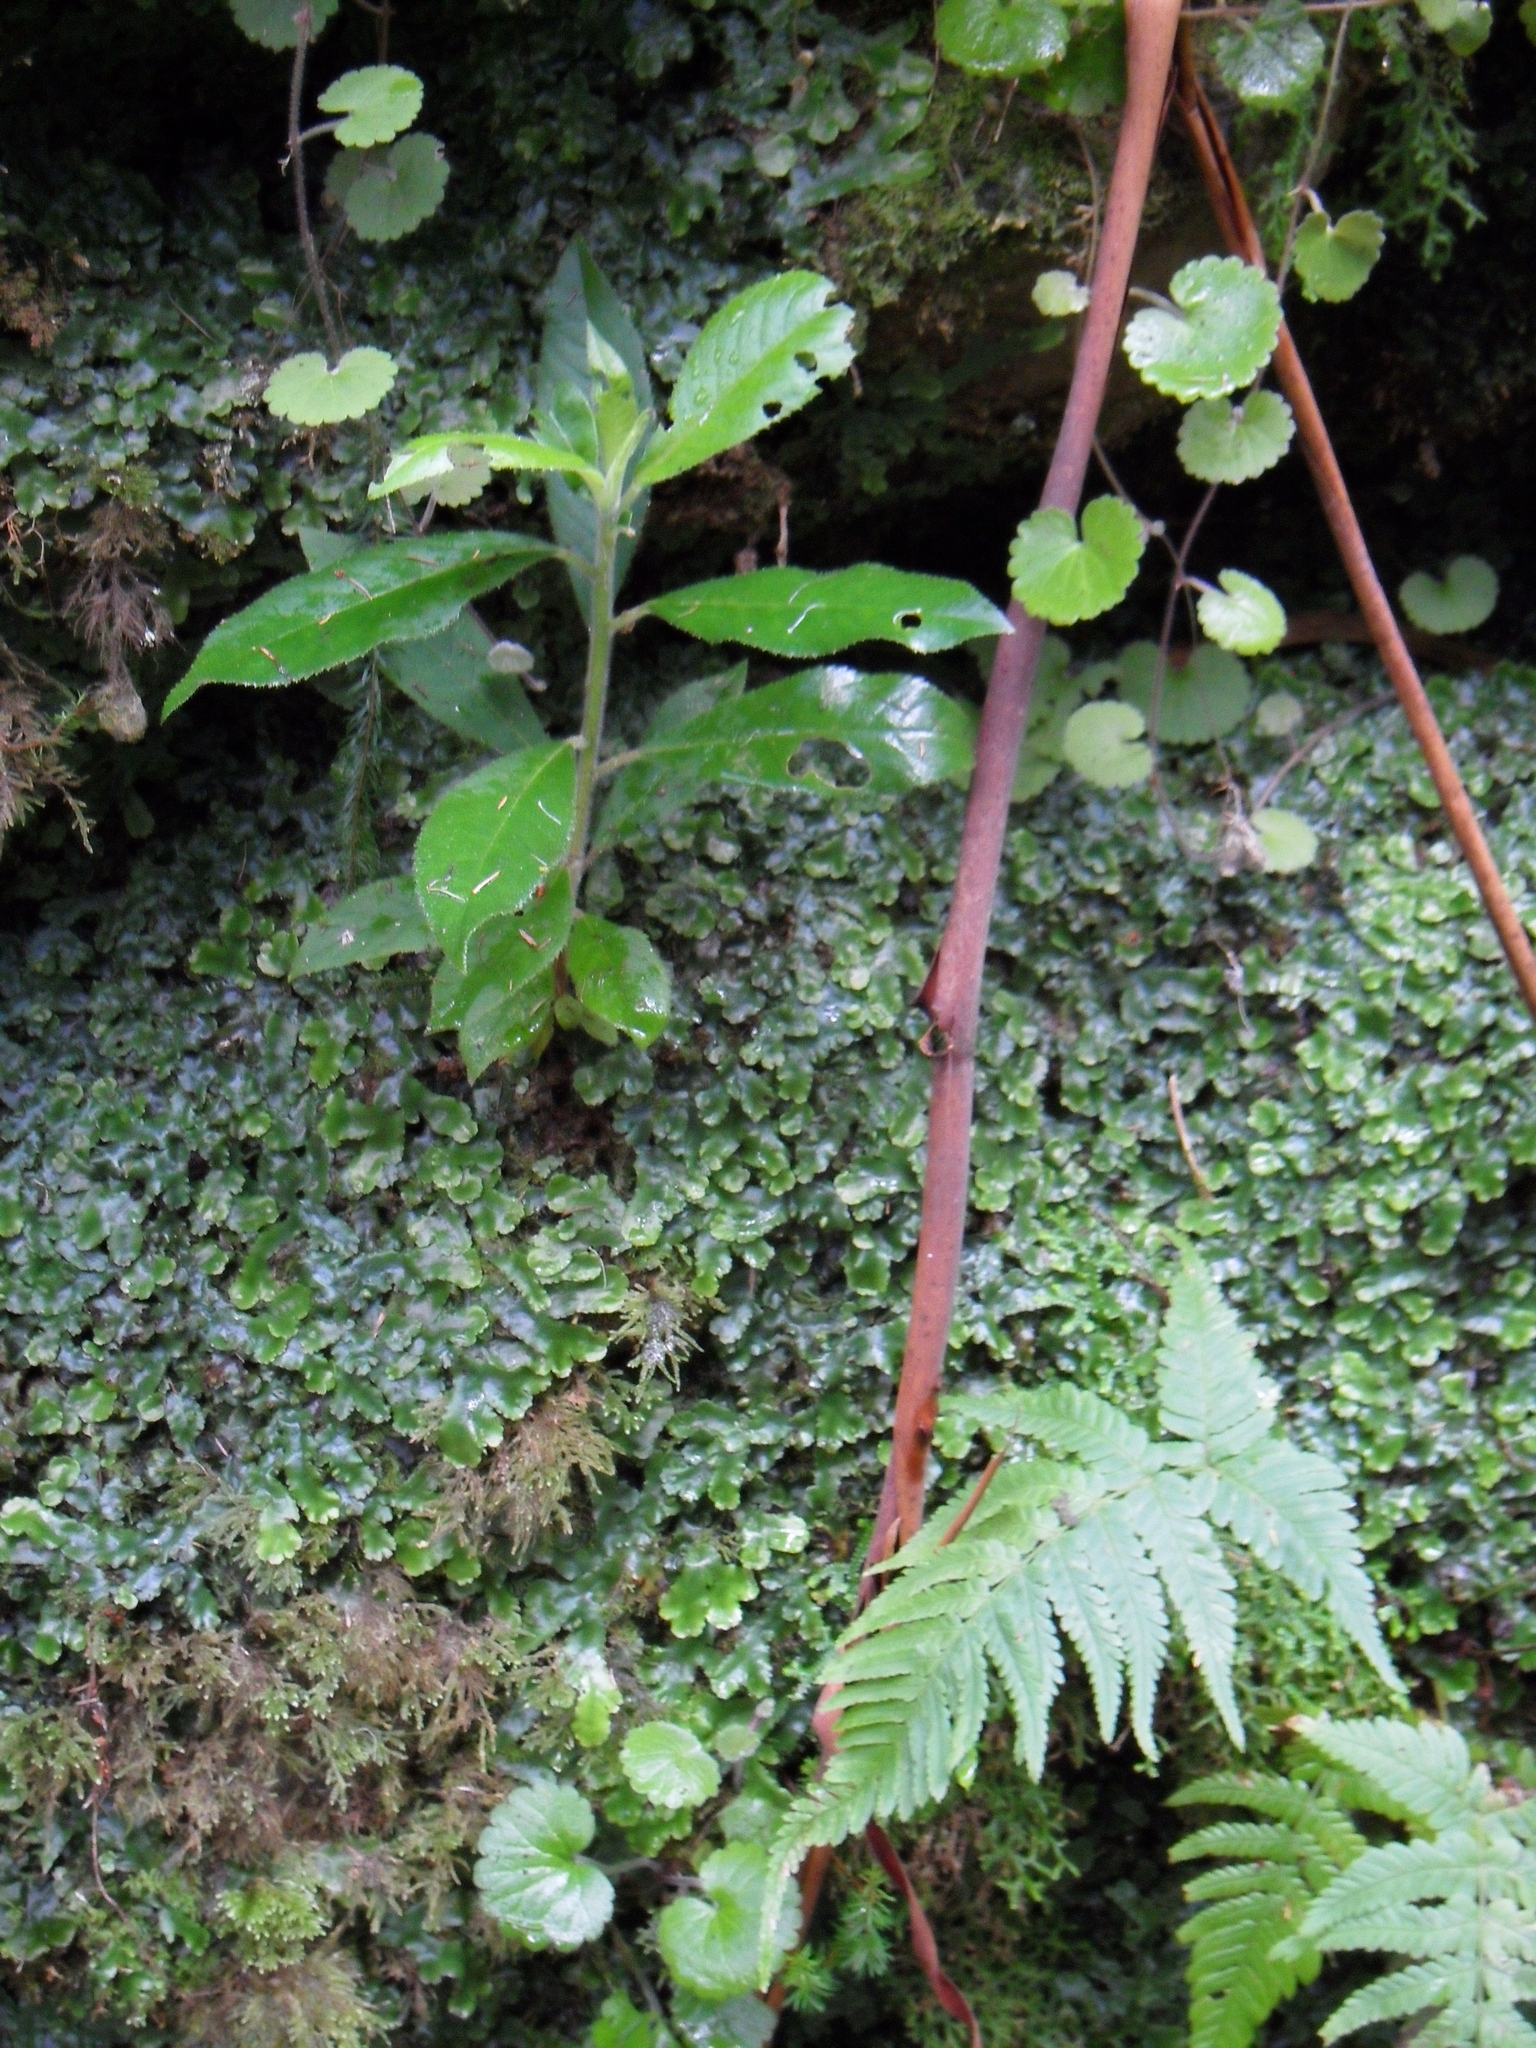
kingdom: Plantae
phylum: Marchantiophyta
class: Marchantiopsida
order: Marchantiales
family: Conocephalaceae
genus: Conocephalum
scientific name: Conocephalum conicum
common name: Great scented liverwort
